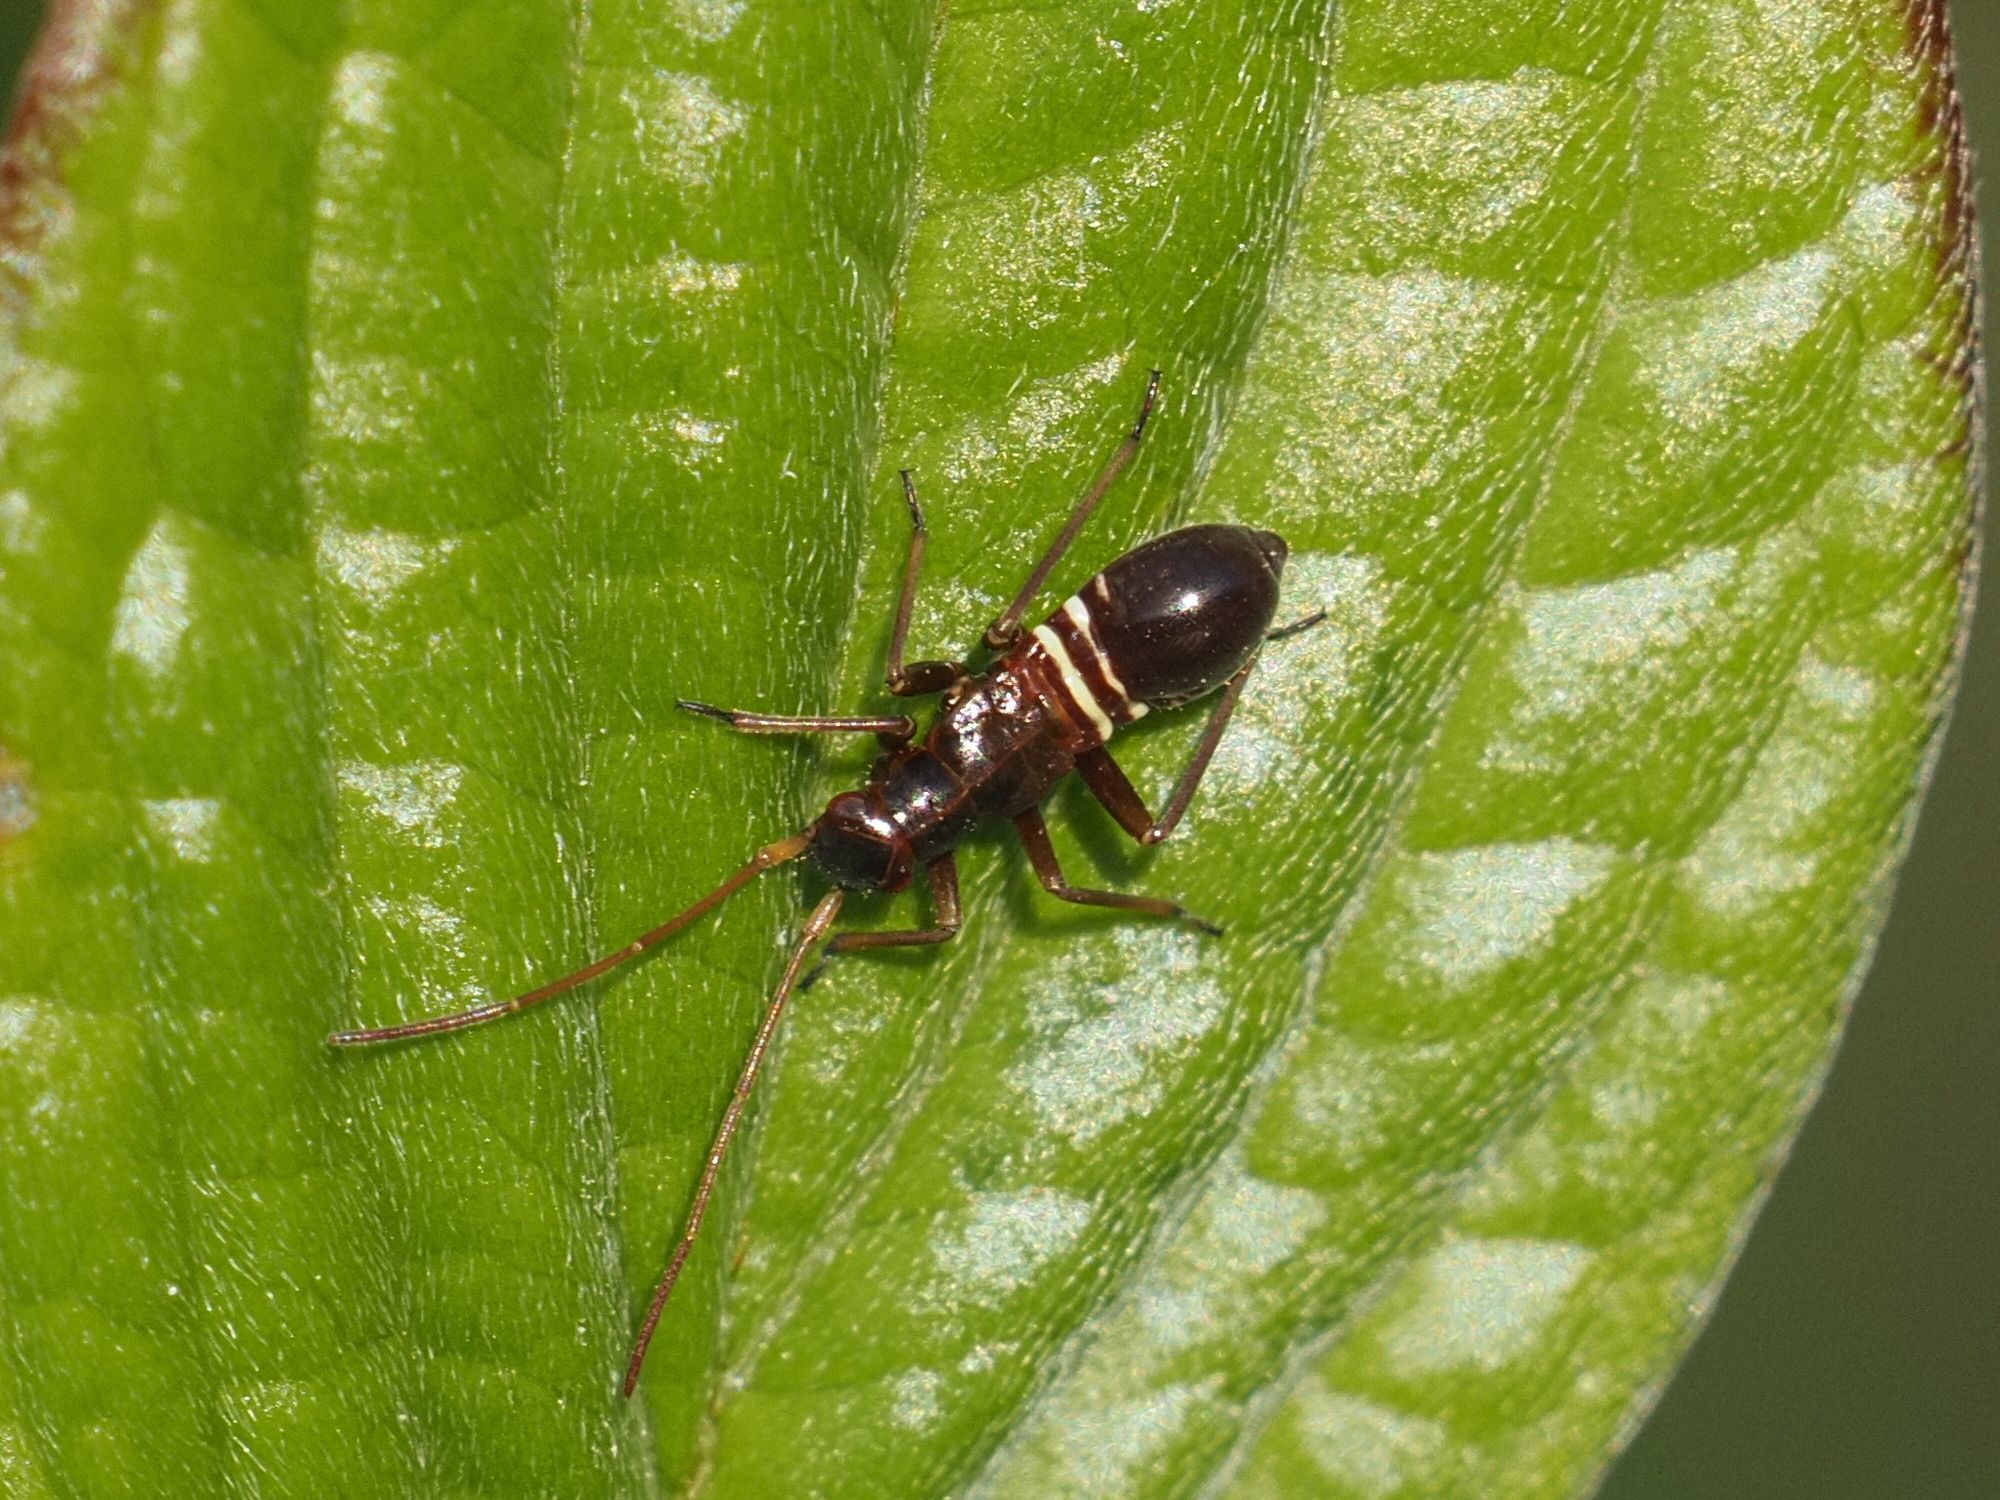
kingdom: Animalia
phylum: Arthropoda
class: Insecta
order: Hemiptera
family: Miridae
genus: Miris
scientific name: Miris striatus
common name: Fine streaked bugkin
